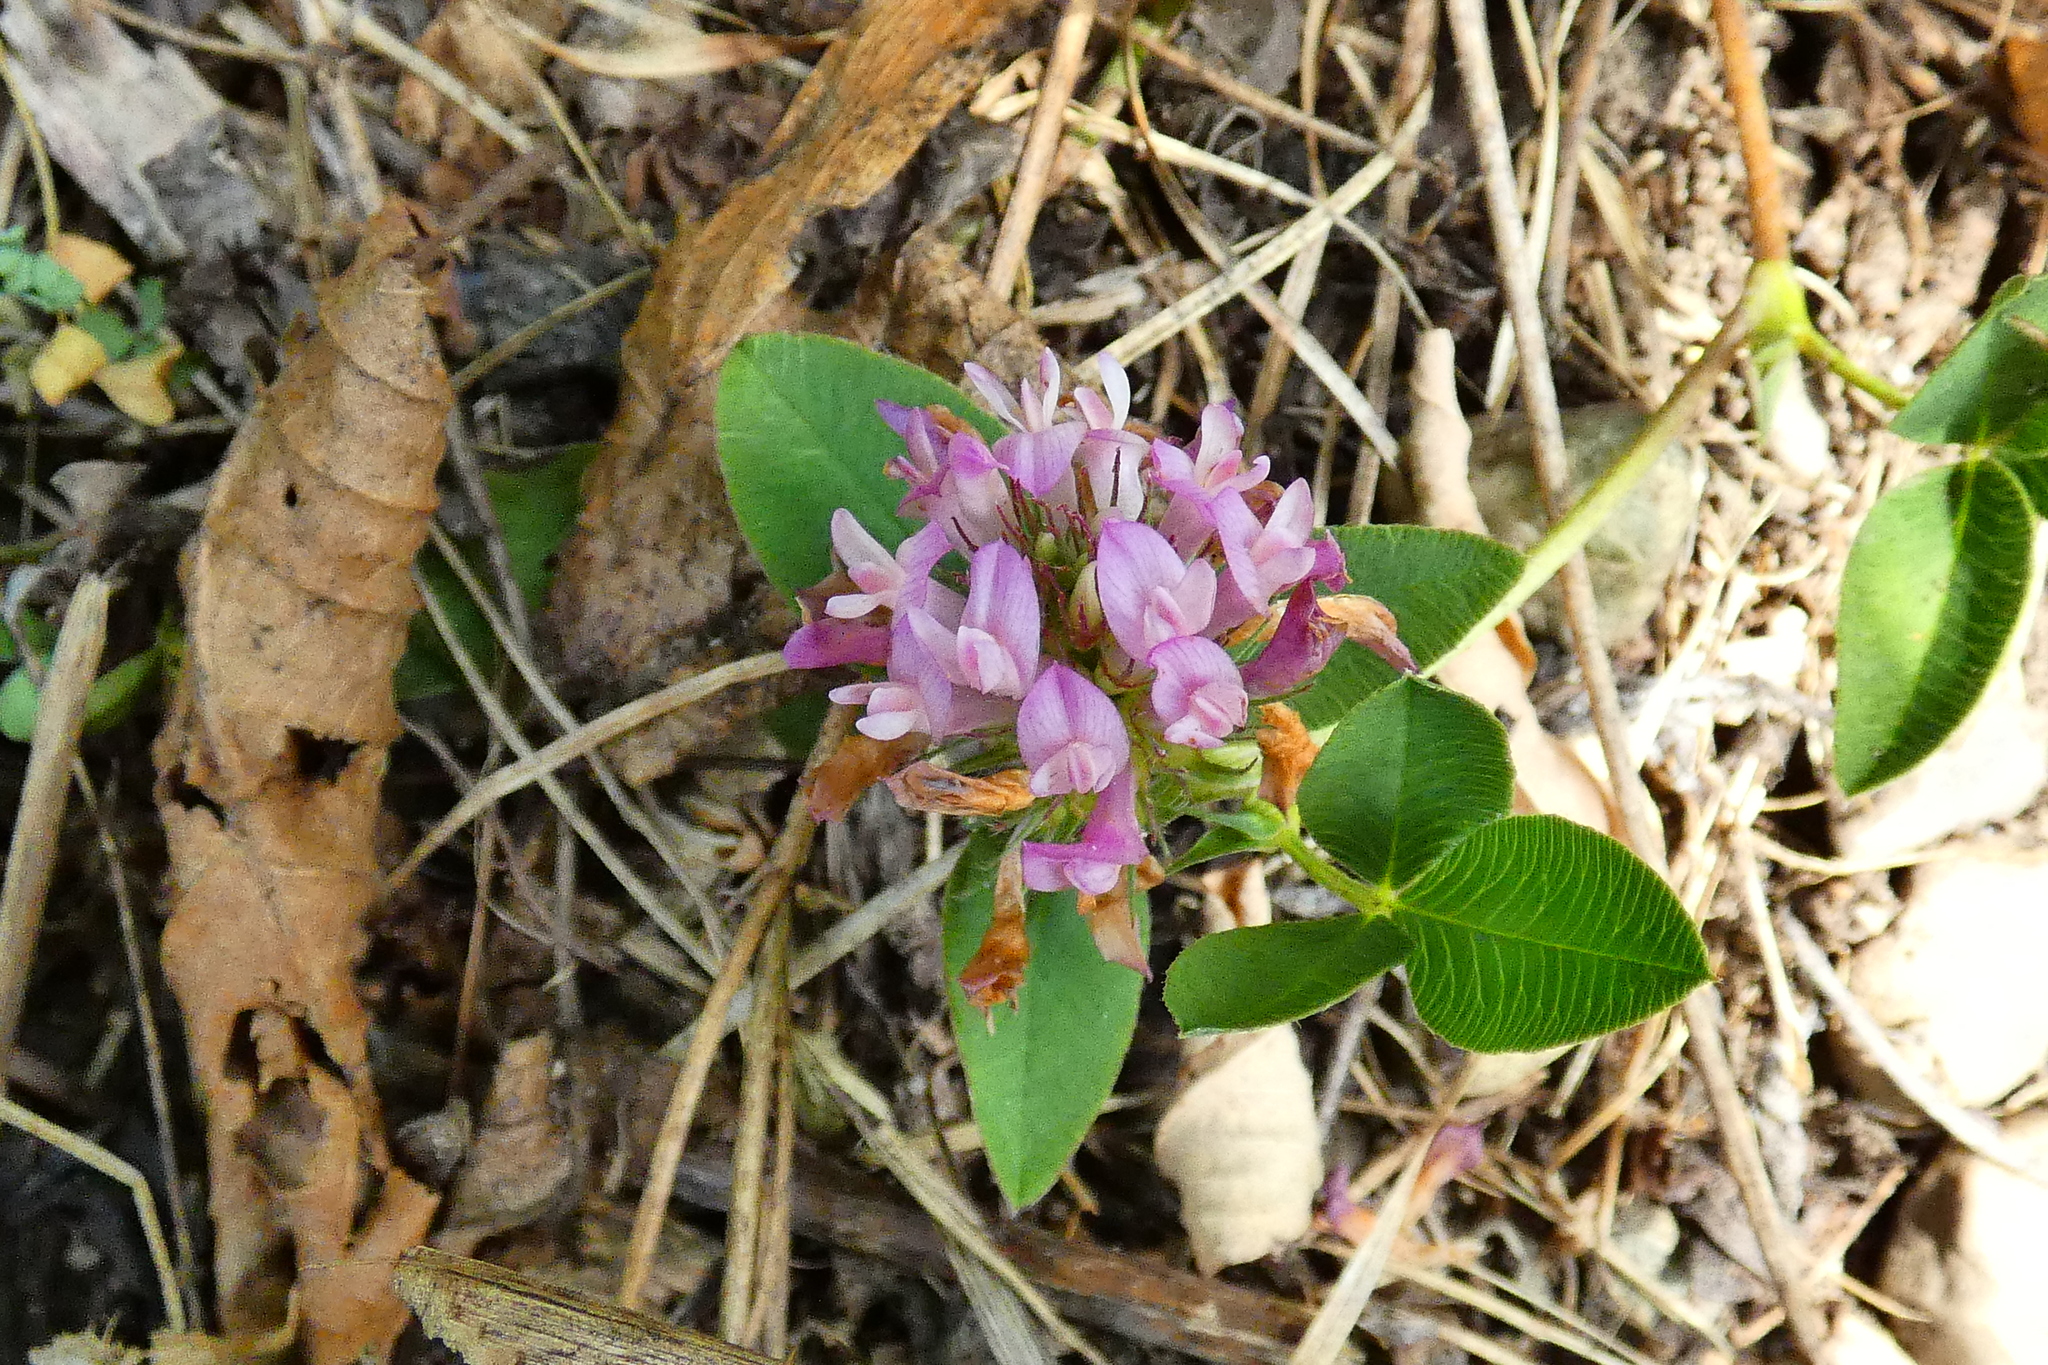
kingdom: Plantae
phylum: Tracheophyta
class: Magnoliopsida
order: Fabales
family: Fabaceae
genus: Trifolium
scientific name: Trifolium pratense
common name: Red clover
